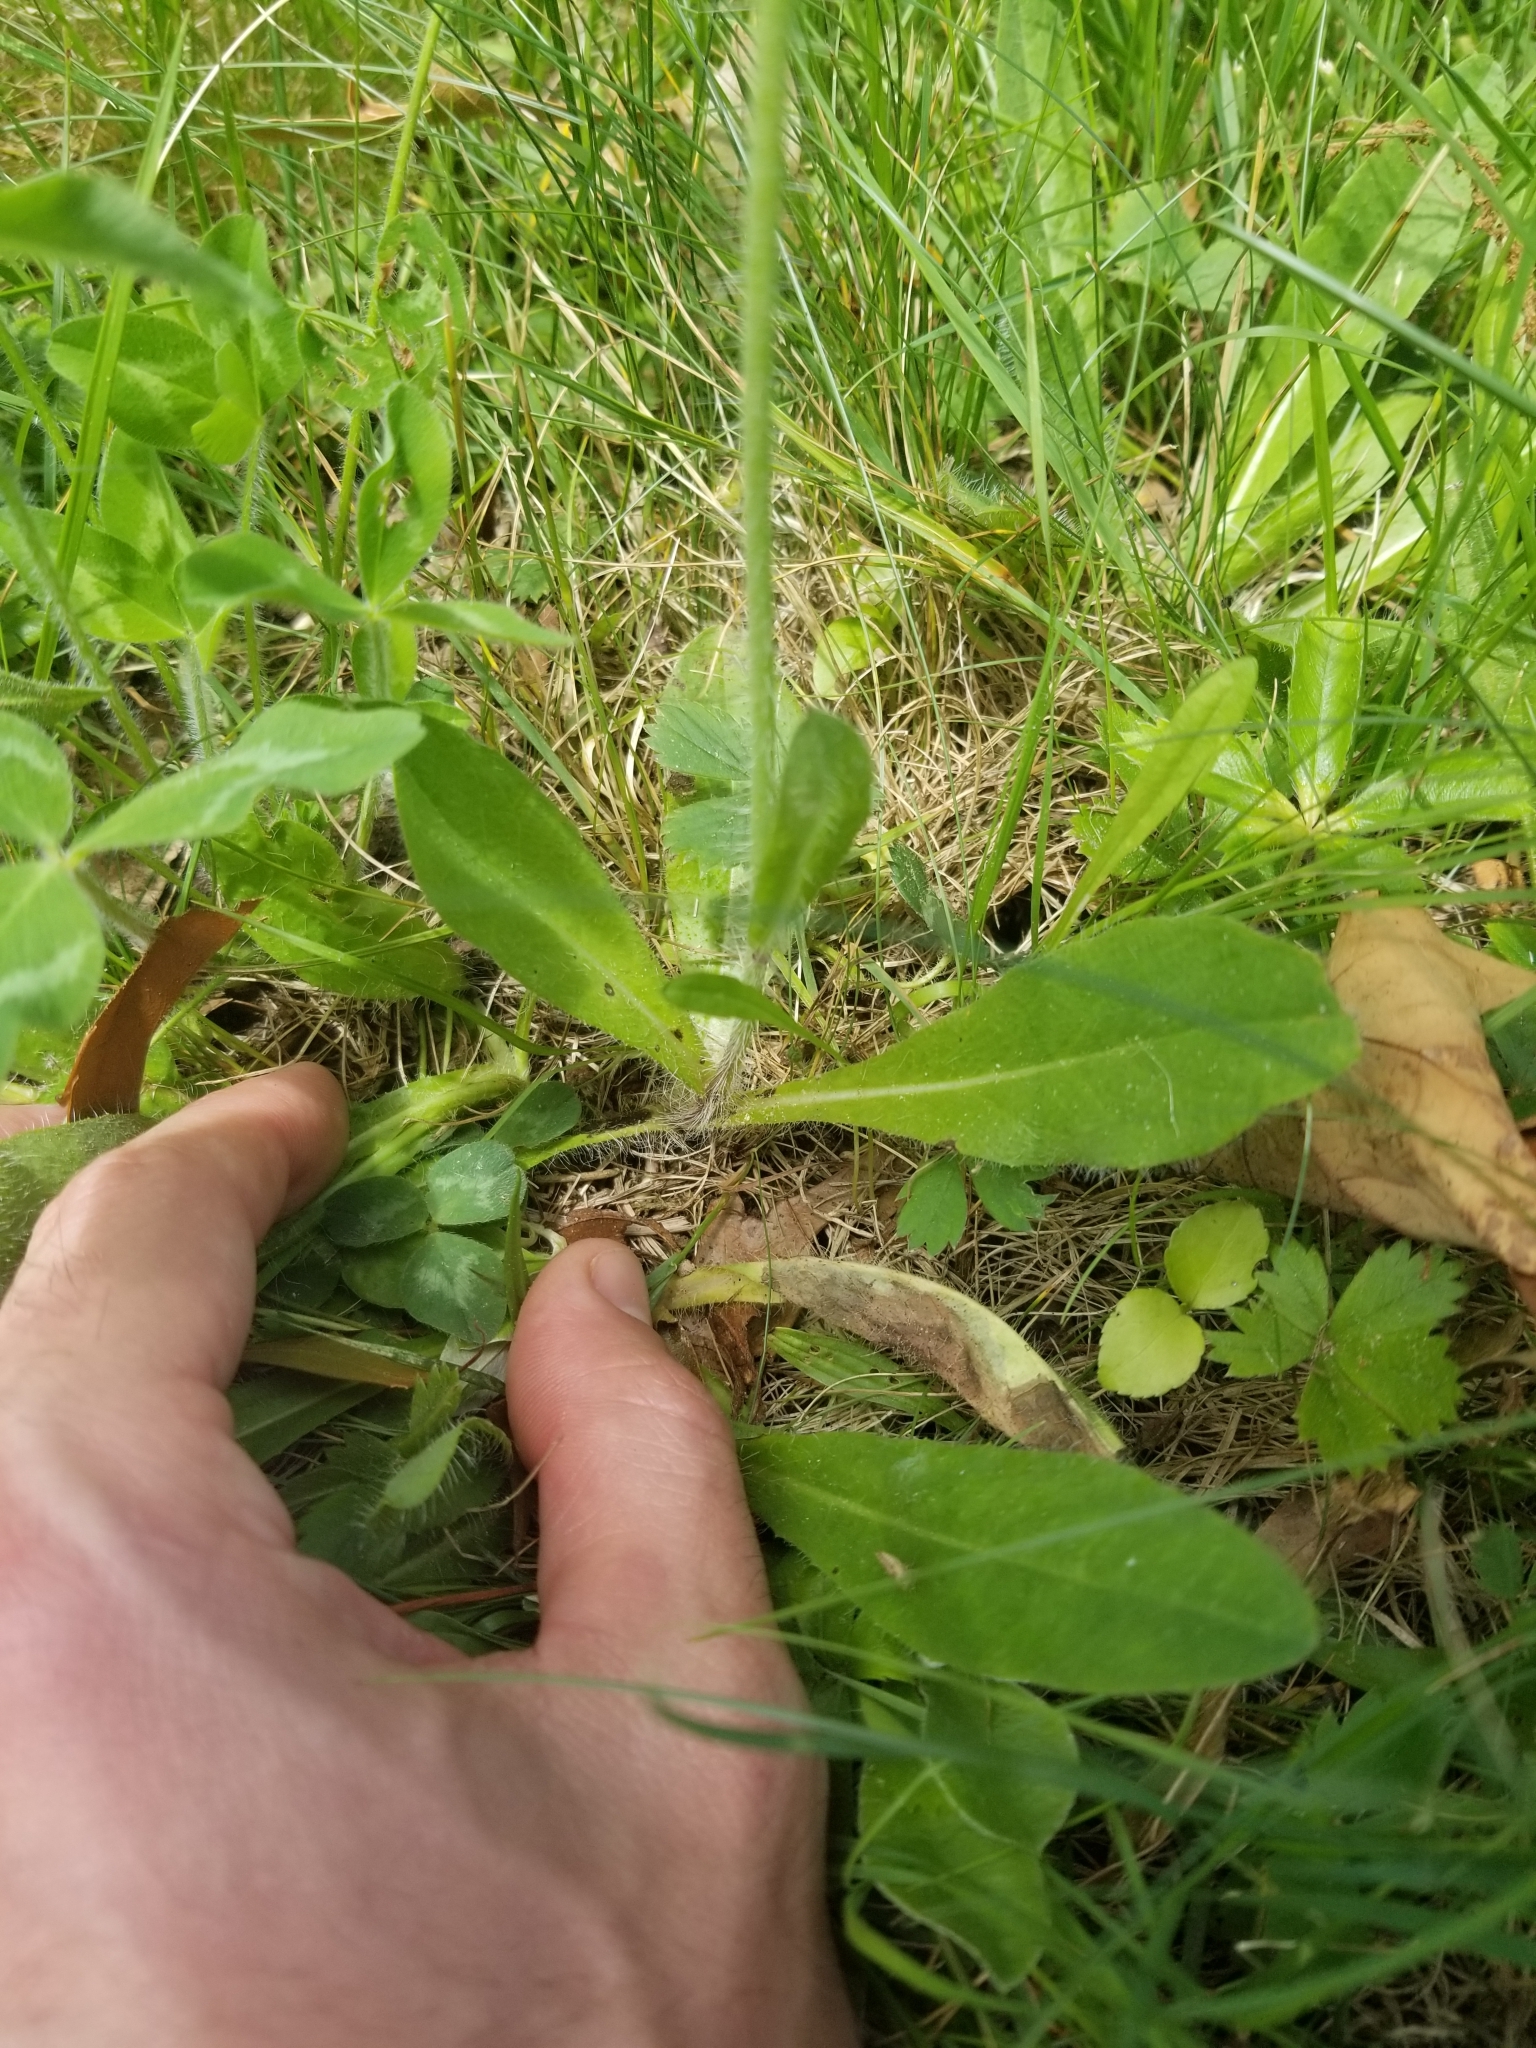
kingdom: Plantae
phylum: Tracheophyta
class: Magnoliopsida
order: Asterales
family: Asteraceae
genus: Pilosella
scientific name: Pilosella aurantiaca
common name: Fox-and-cubs
